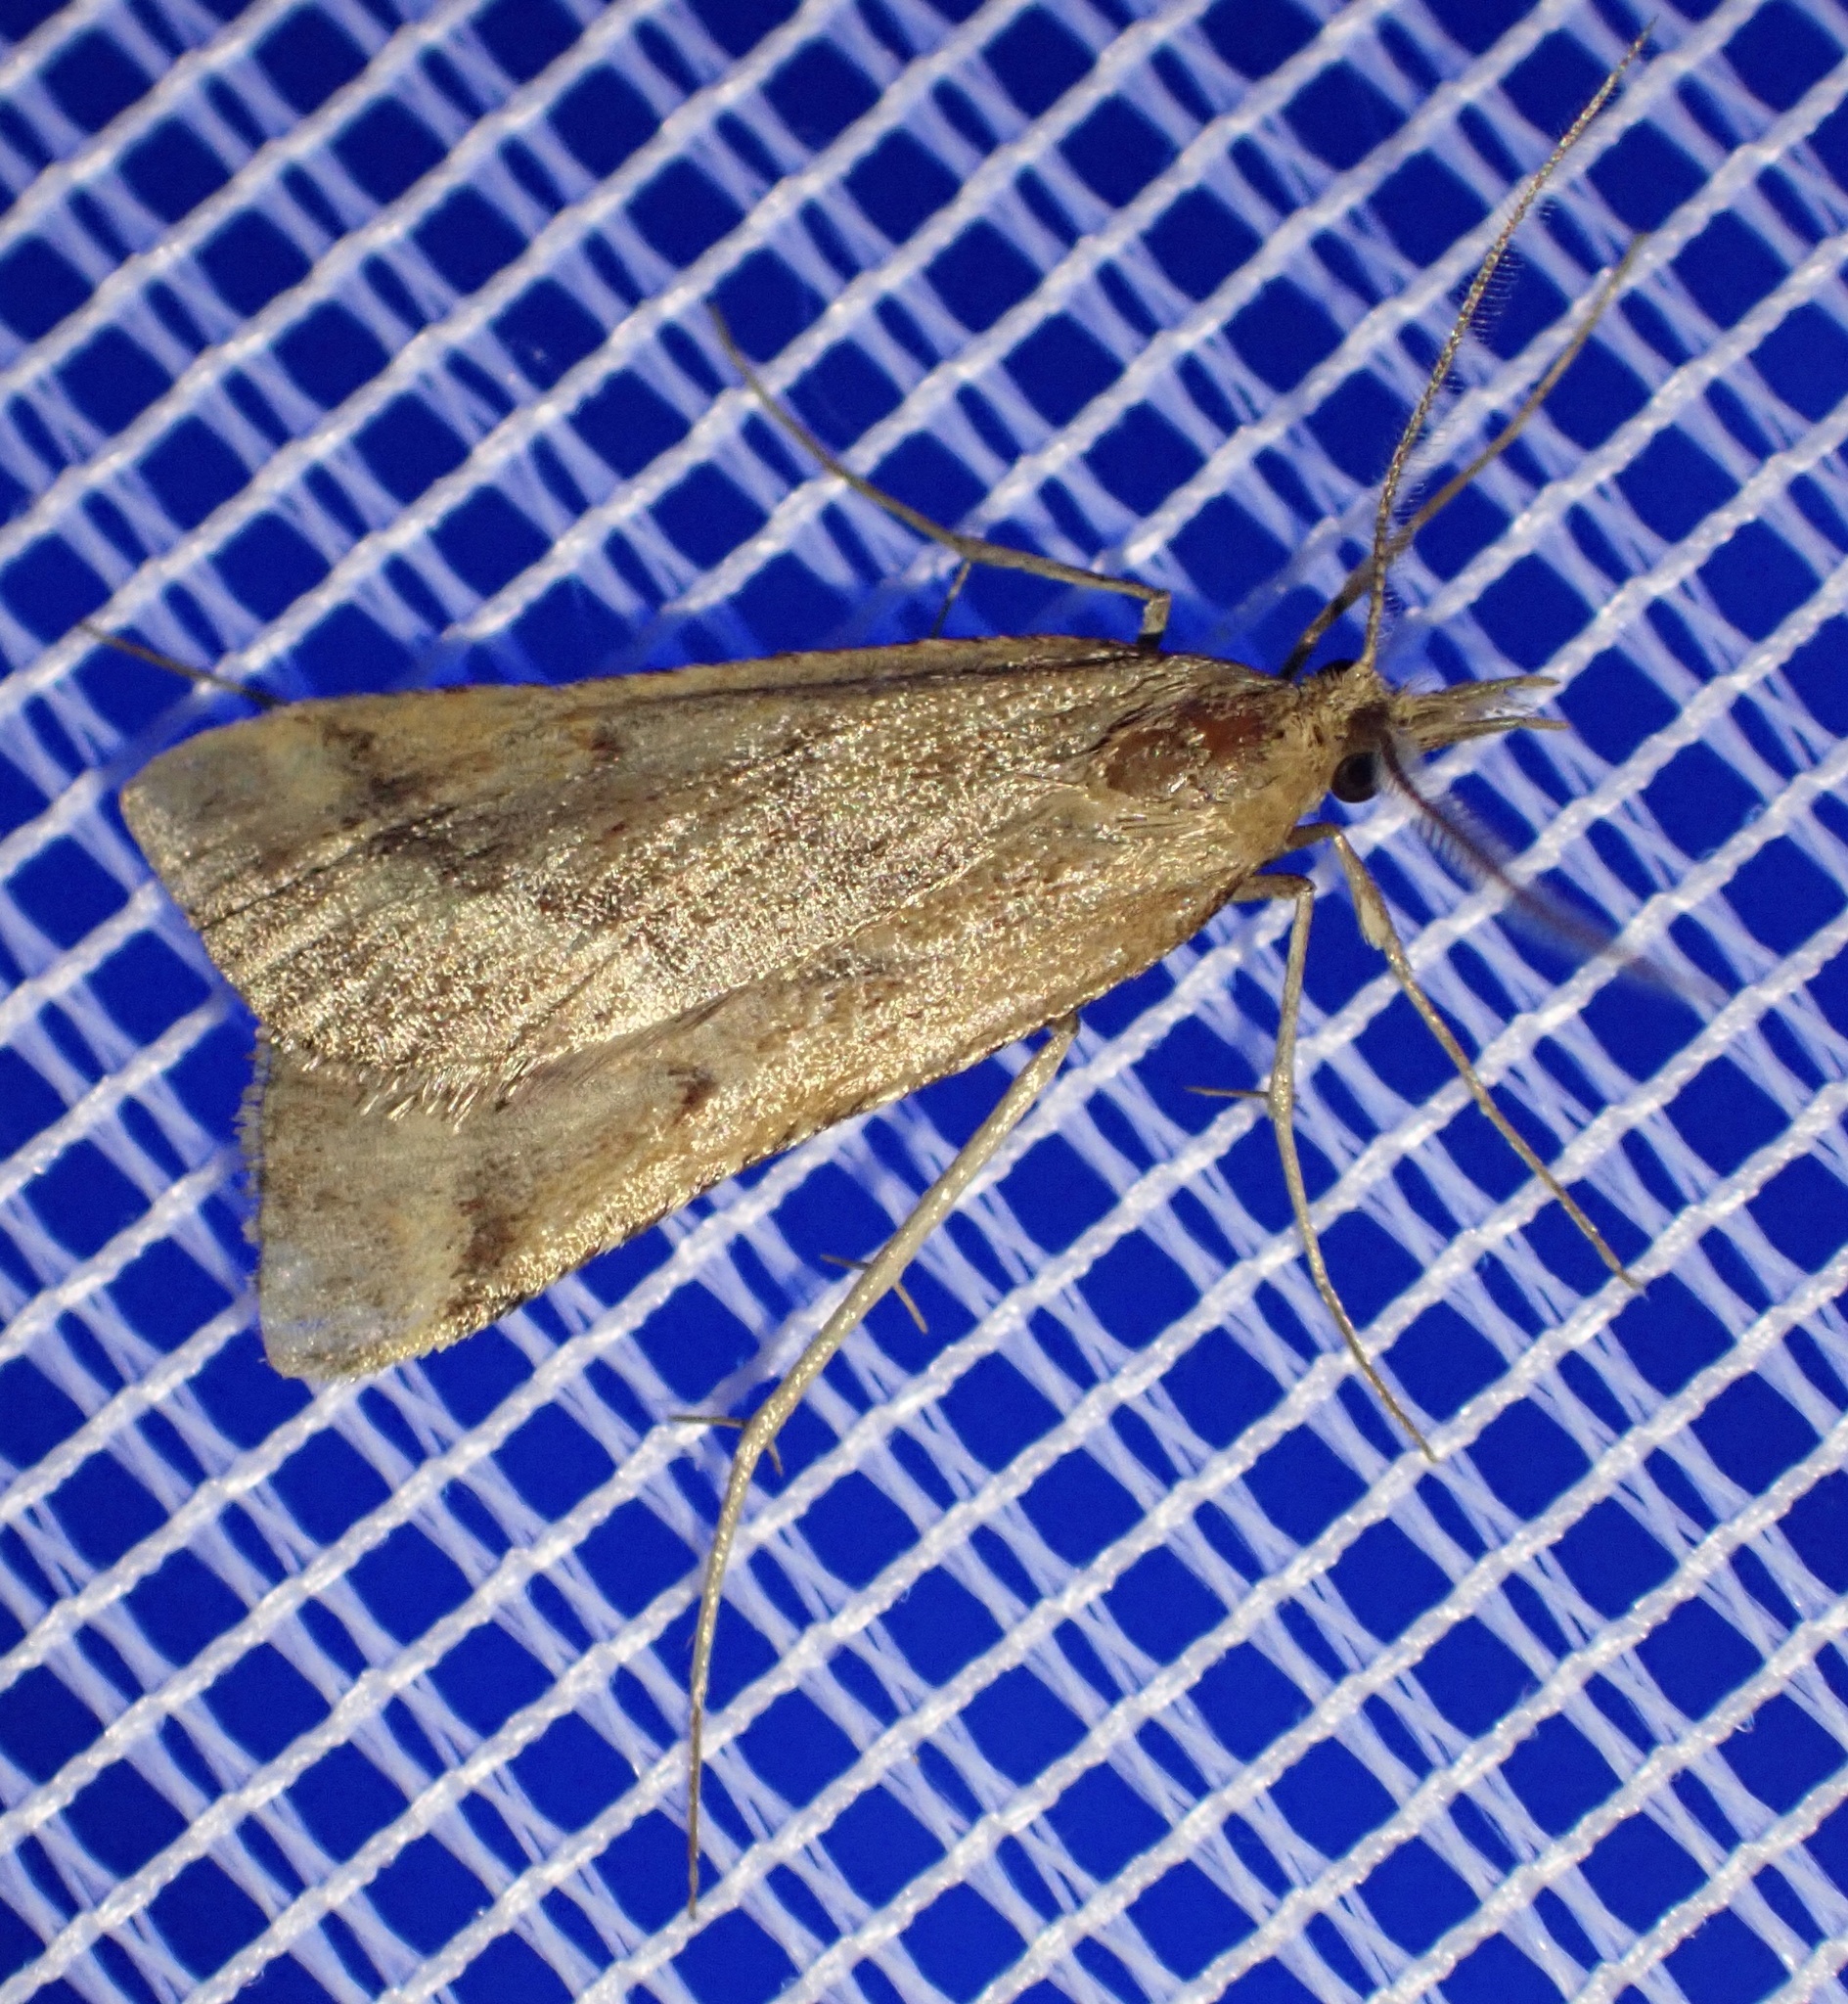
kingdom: Animalia
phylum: Arthropoda
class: Insecta
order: Lepidoptera
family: Pyralidae
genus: Synaphe
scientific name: Synaphe punctalis
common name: Long-legged tabby
